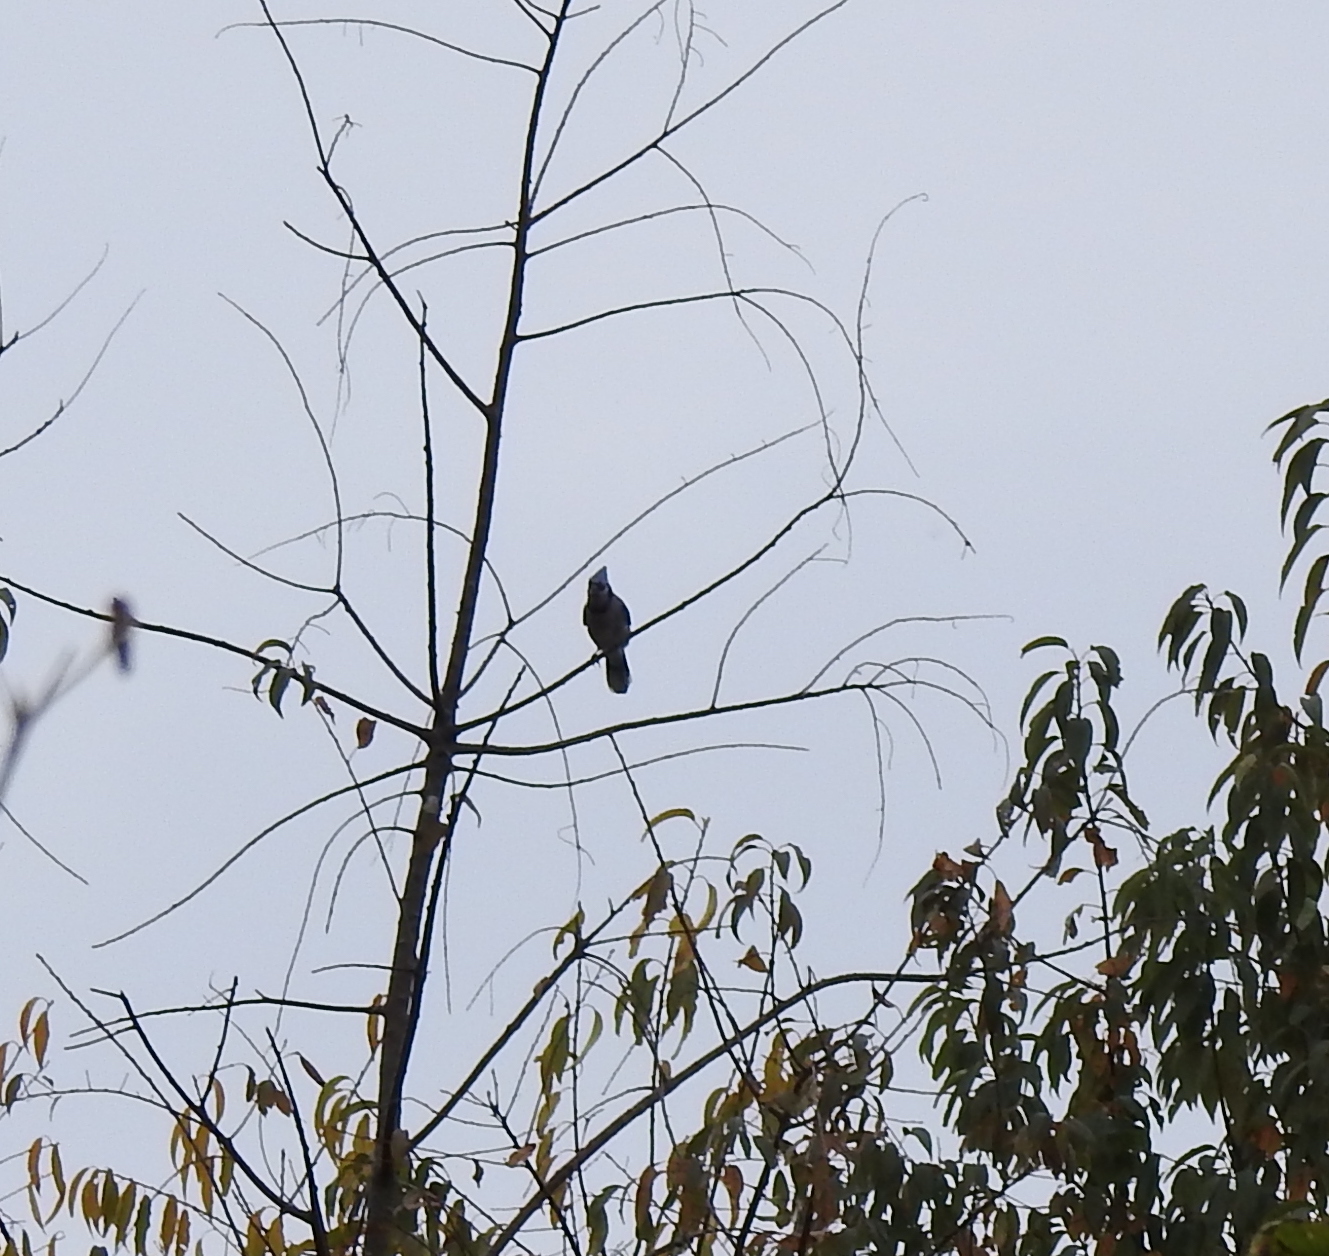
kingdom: Animalia
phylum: Chordata
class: Aves
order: Passeriformes
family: Corvidae
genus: Cyanocitta
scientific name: Cyanocitta cristata
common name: Blue jay
